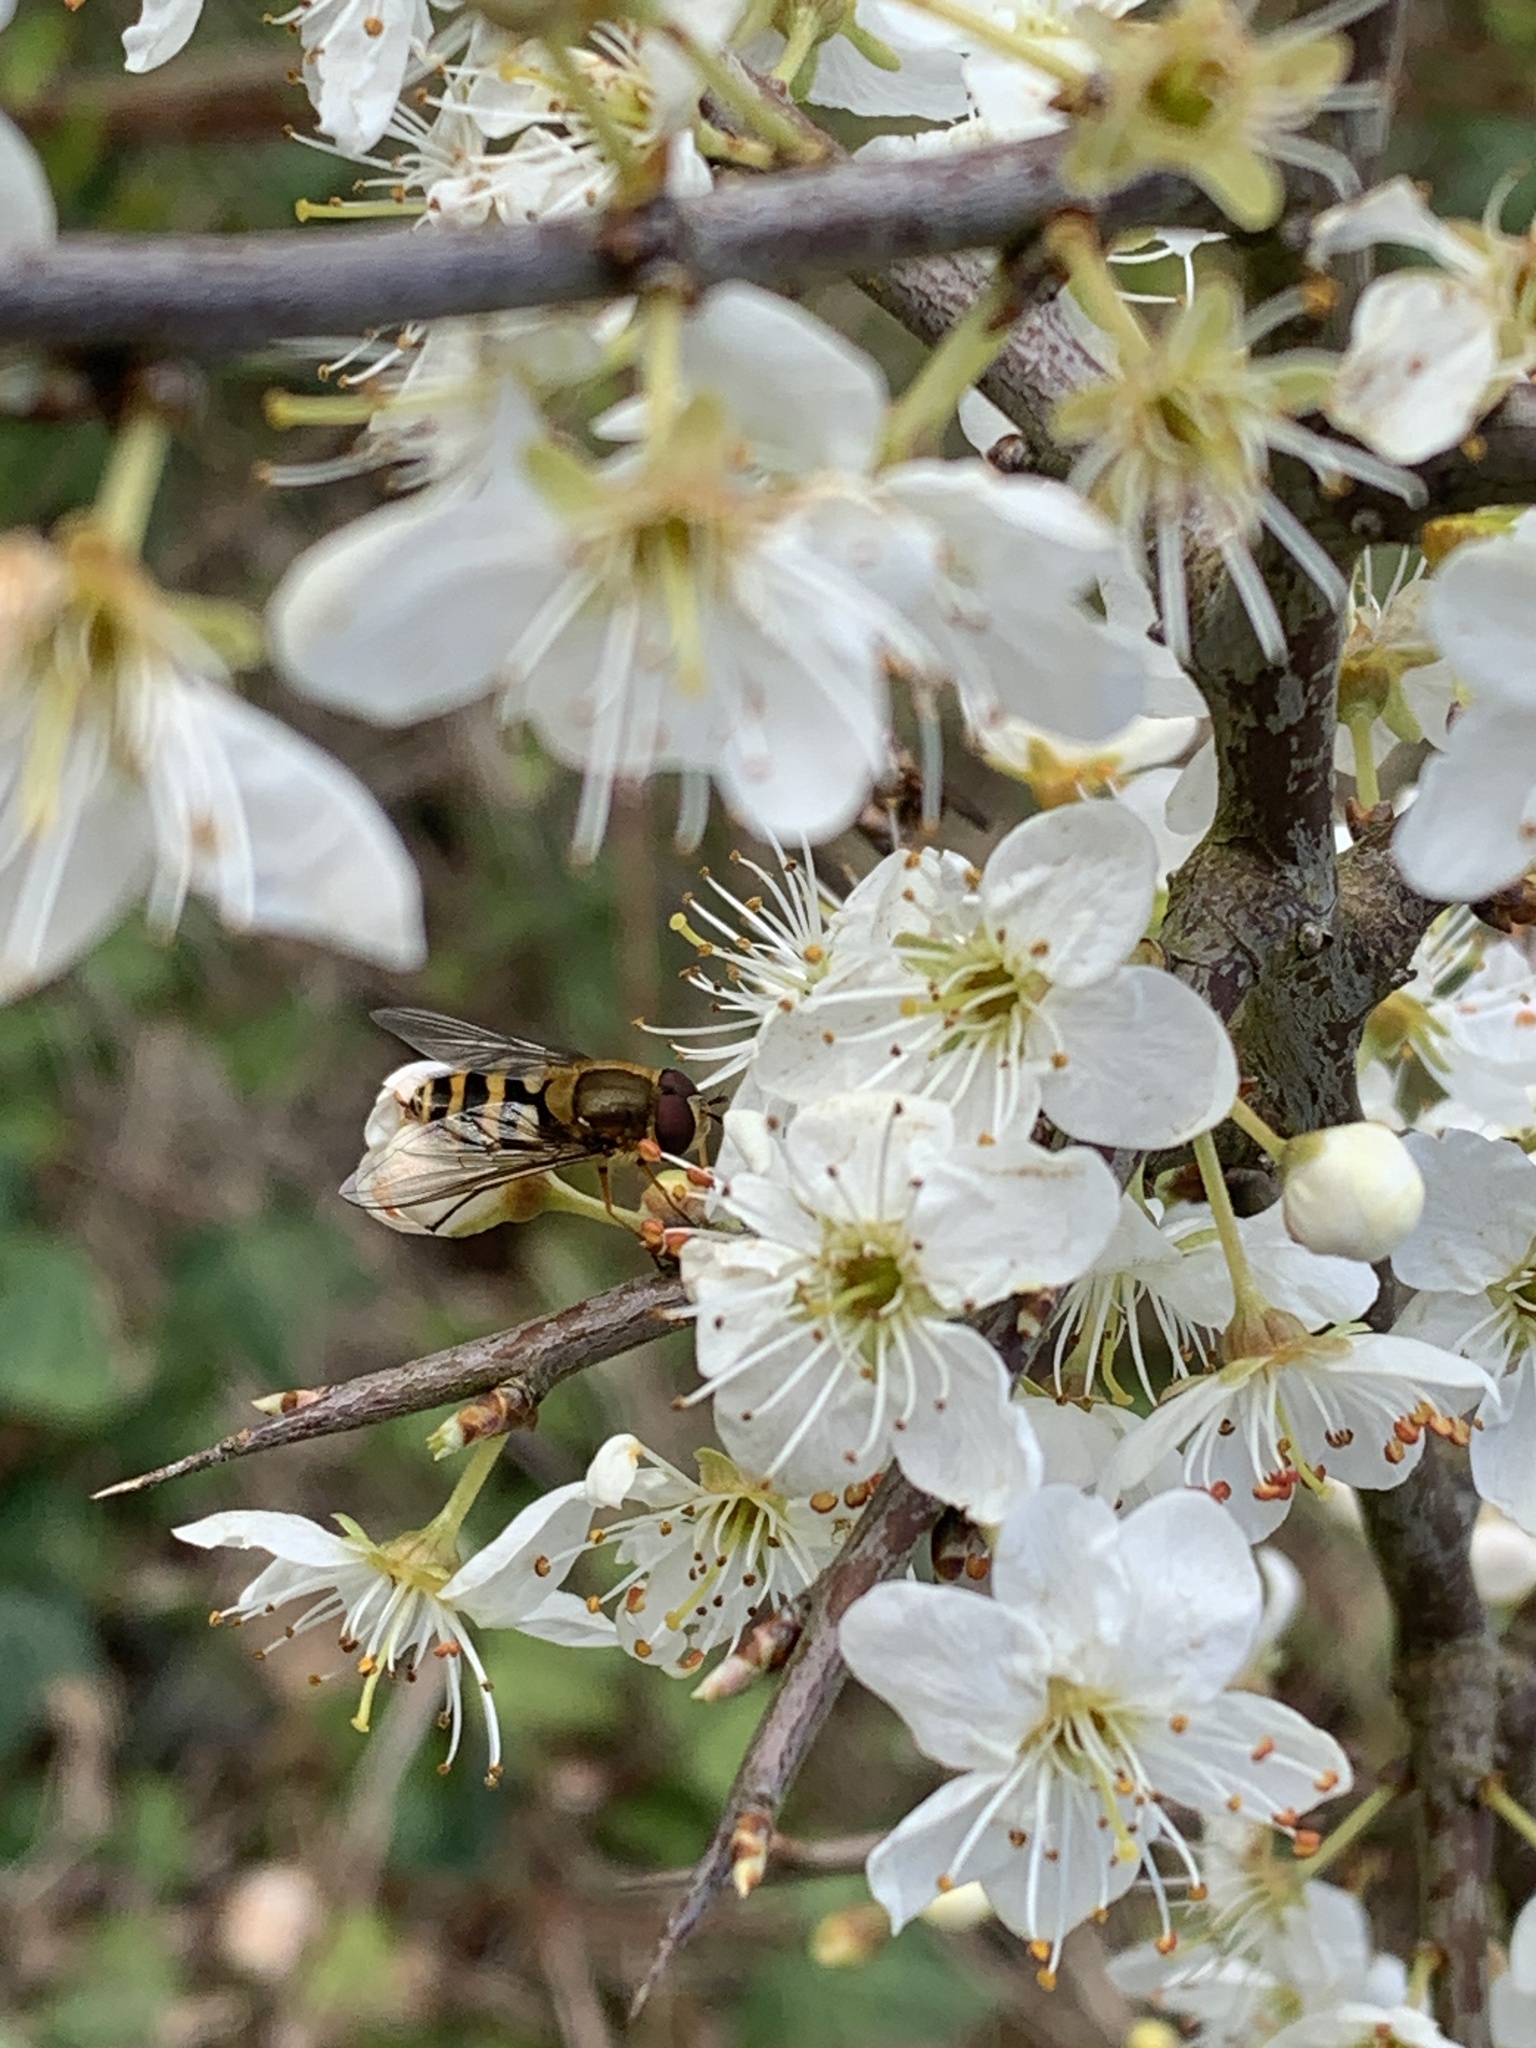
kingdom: Animalia
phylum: Arthropoda
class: Insecta
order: Diptera
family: Syrphidae
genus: Syrphus
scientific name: Syrphus
